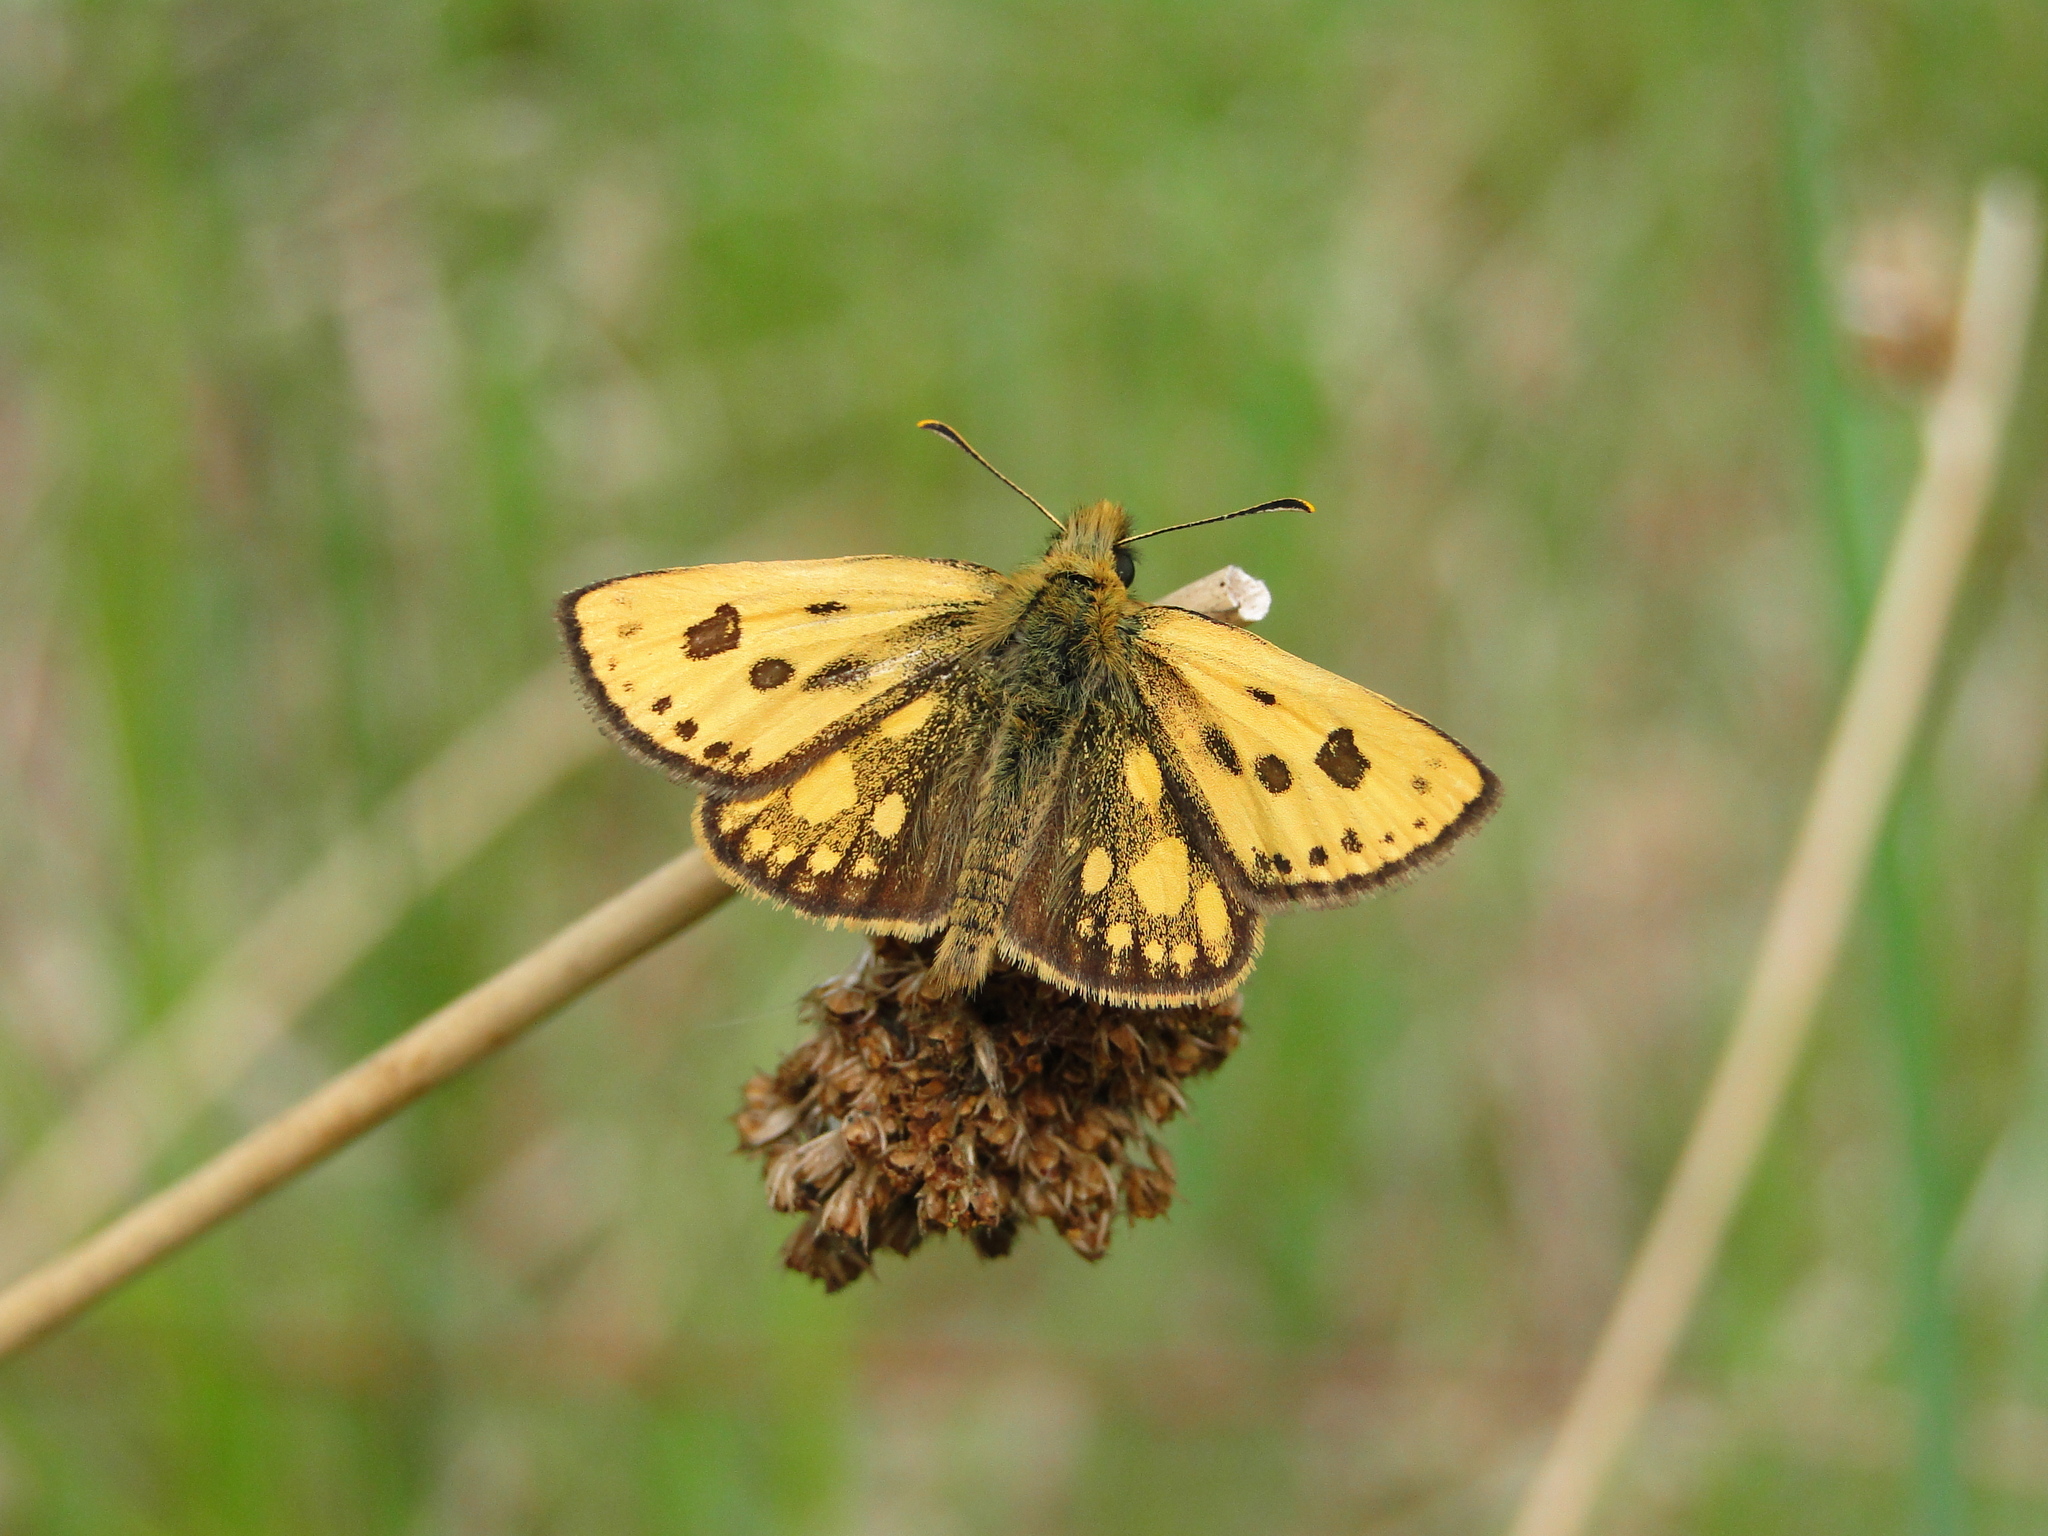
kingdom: Animalia
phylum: Arthropoda
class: Insecta
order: Lepidoptera
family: Hesperiidae
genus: Carterocephalus
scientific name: Carterocephalus silvicola
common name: Northern chequered skipper
